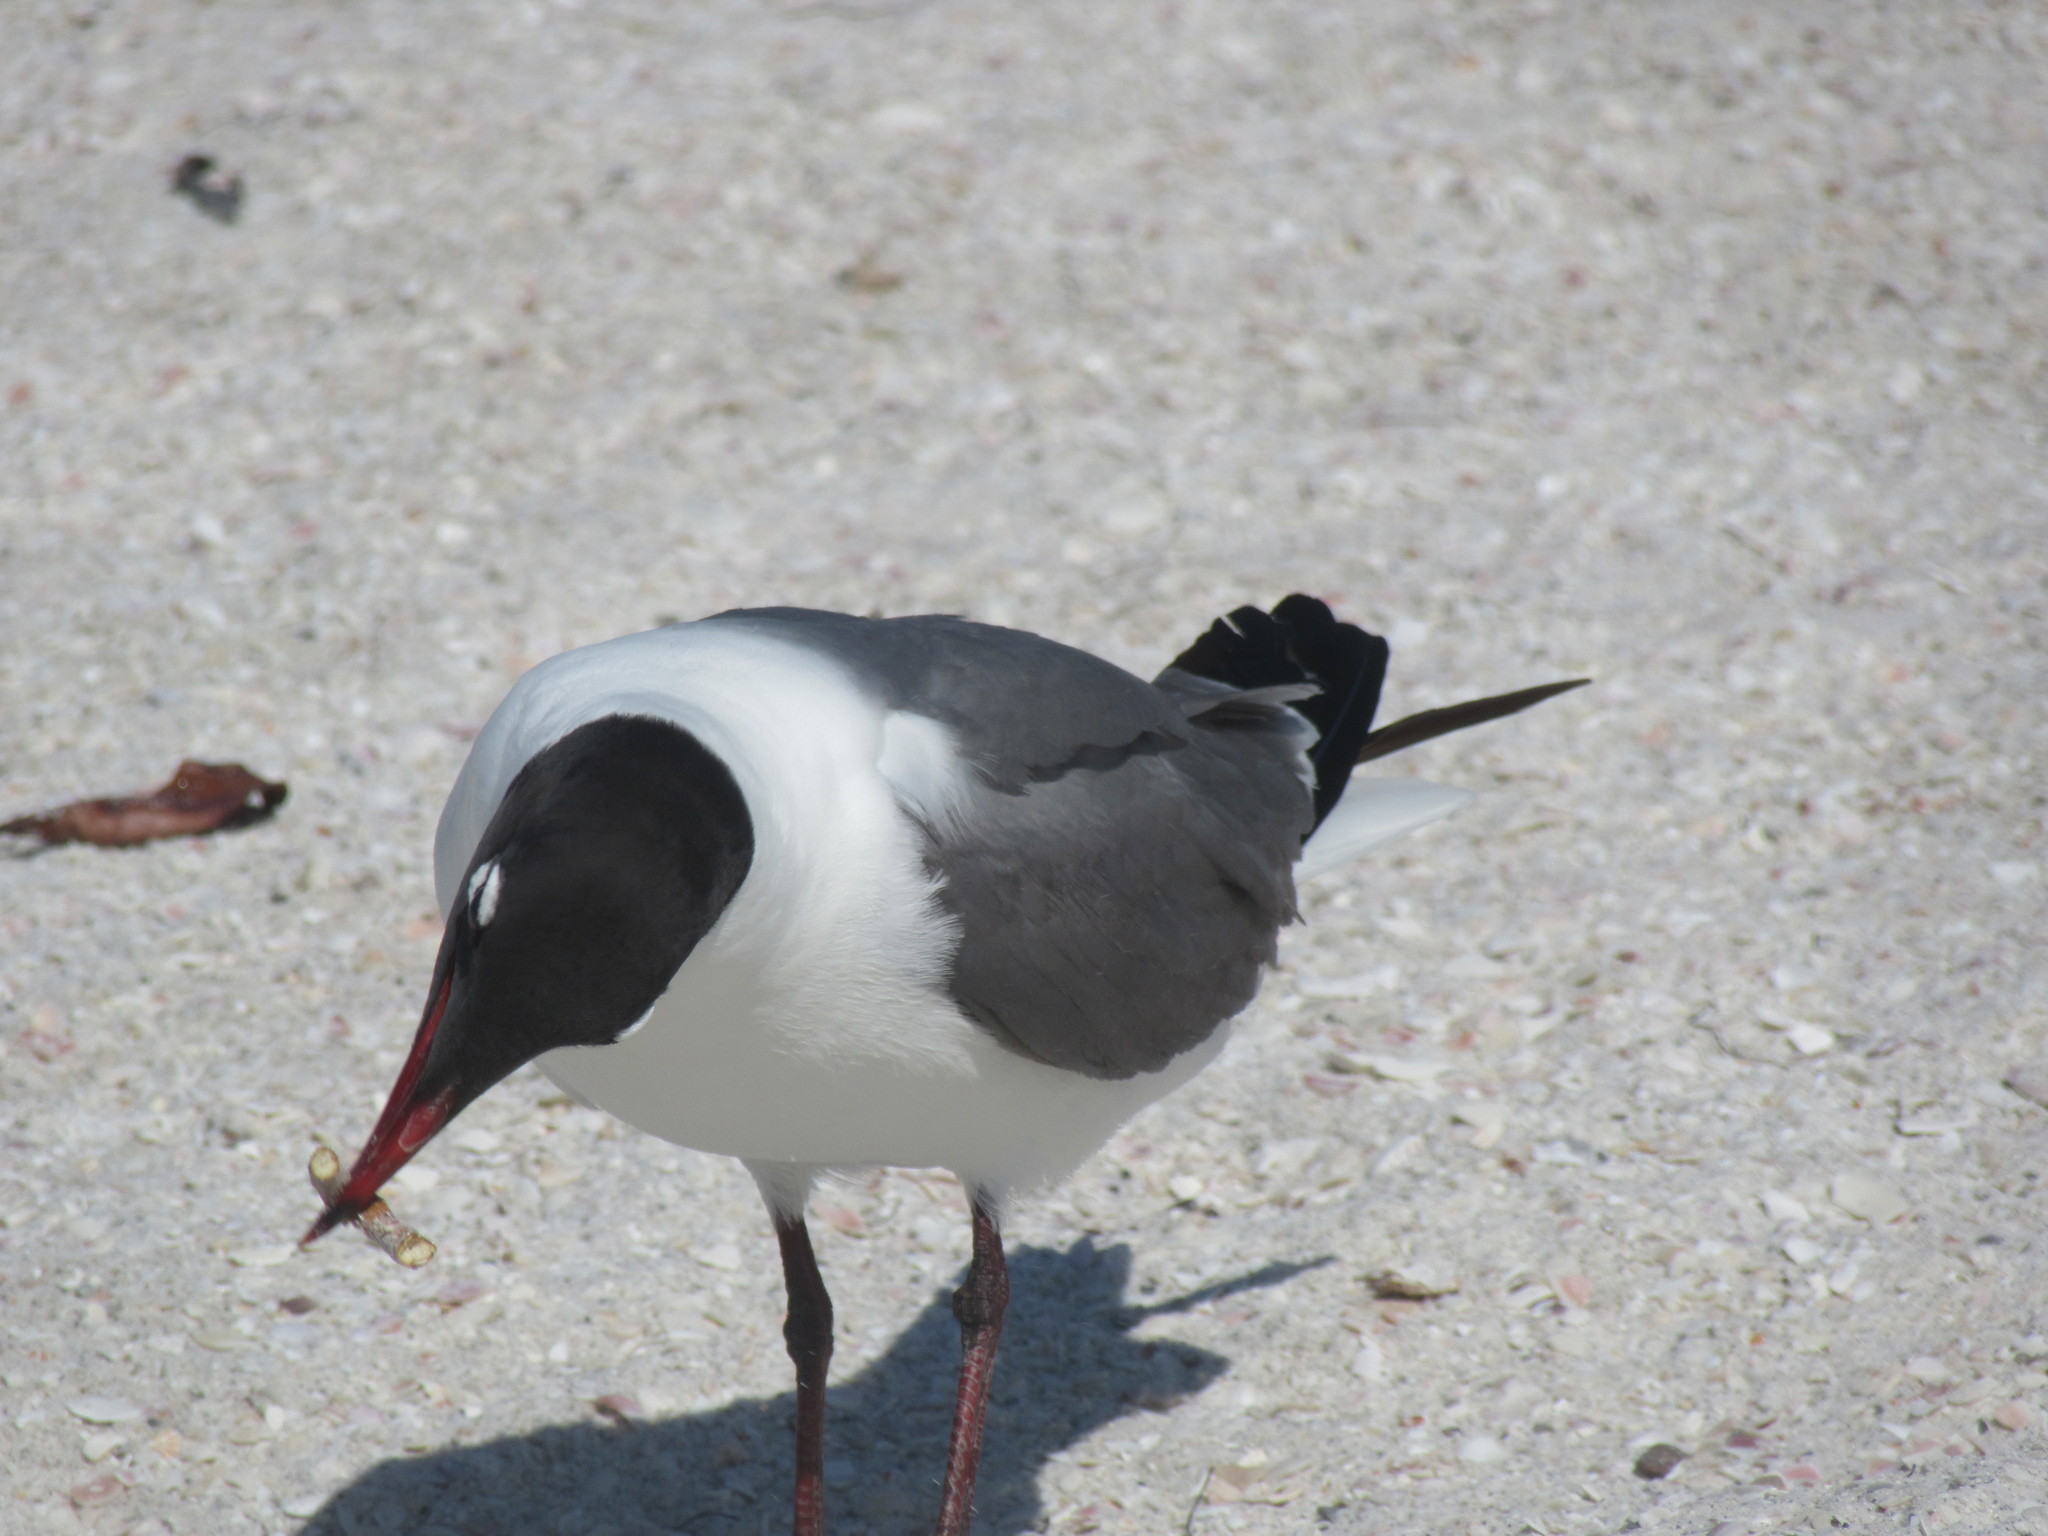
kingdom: Animalia
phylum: Chordata
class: Aves
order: Charadriiformes
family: Laridae
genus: Leucophaeus
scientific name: Leucophaeus atricilla
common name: Laughing gull
